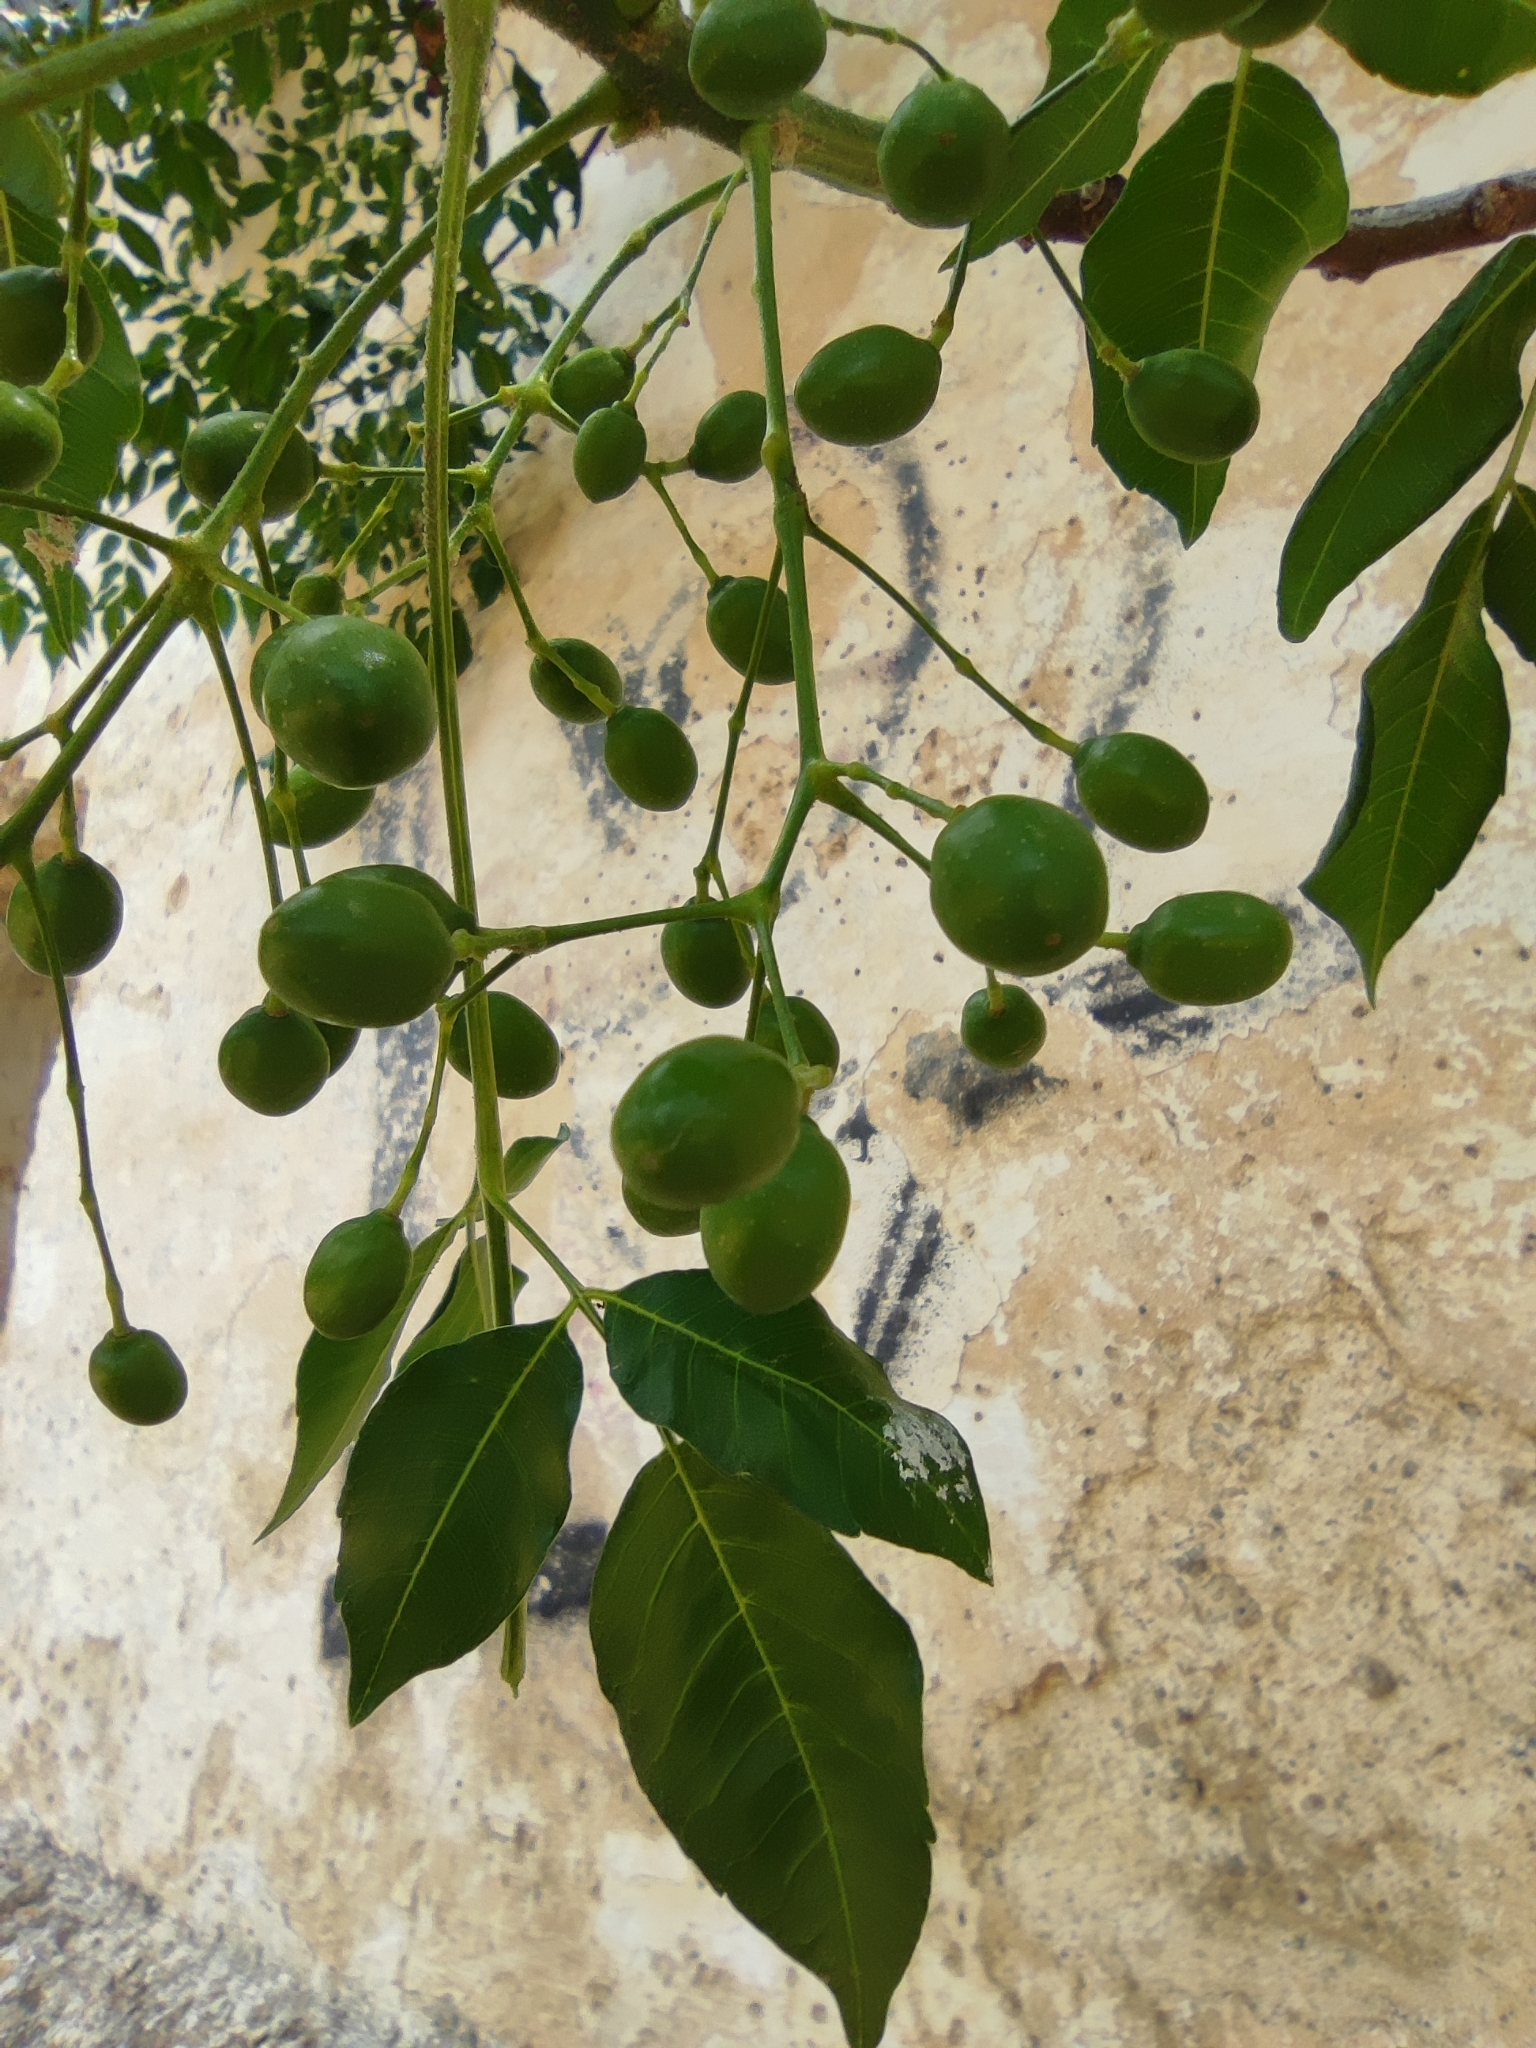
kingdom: Plantae
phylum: Tracheophyta
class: Magnoliopsida
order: Sapindales
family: Meliaceae
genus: Melia
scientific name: Melia azedarach
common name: Chinaberrytree
